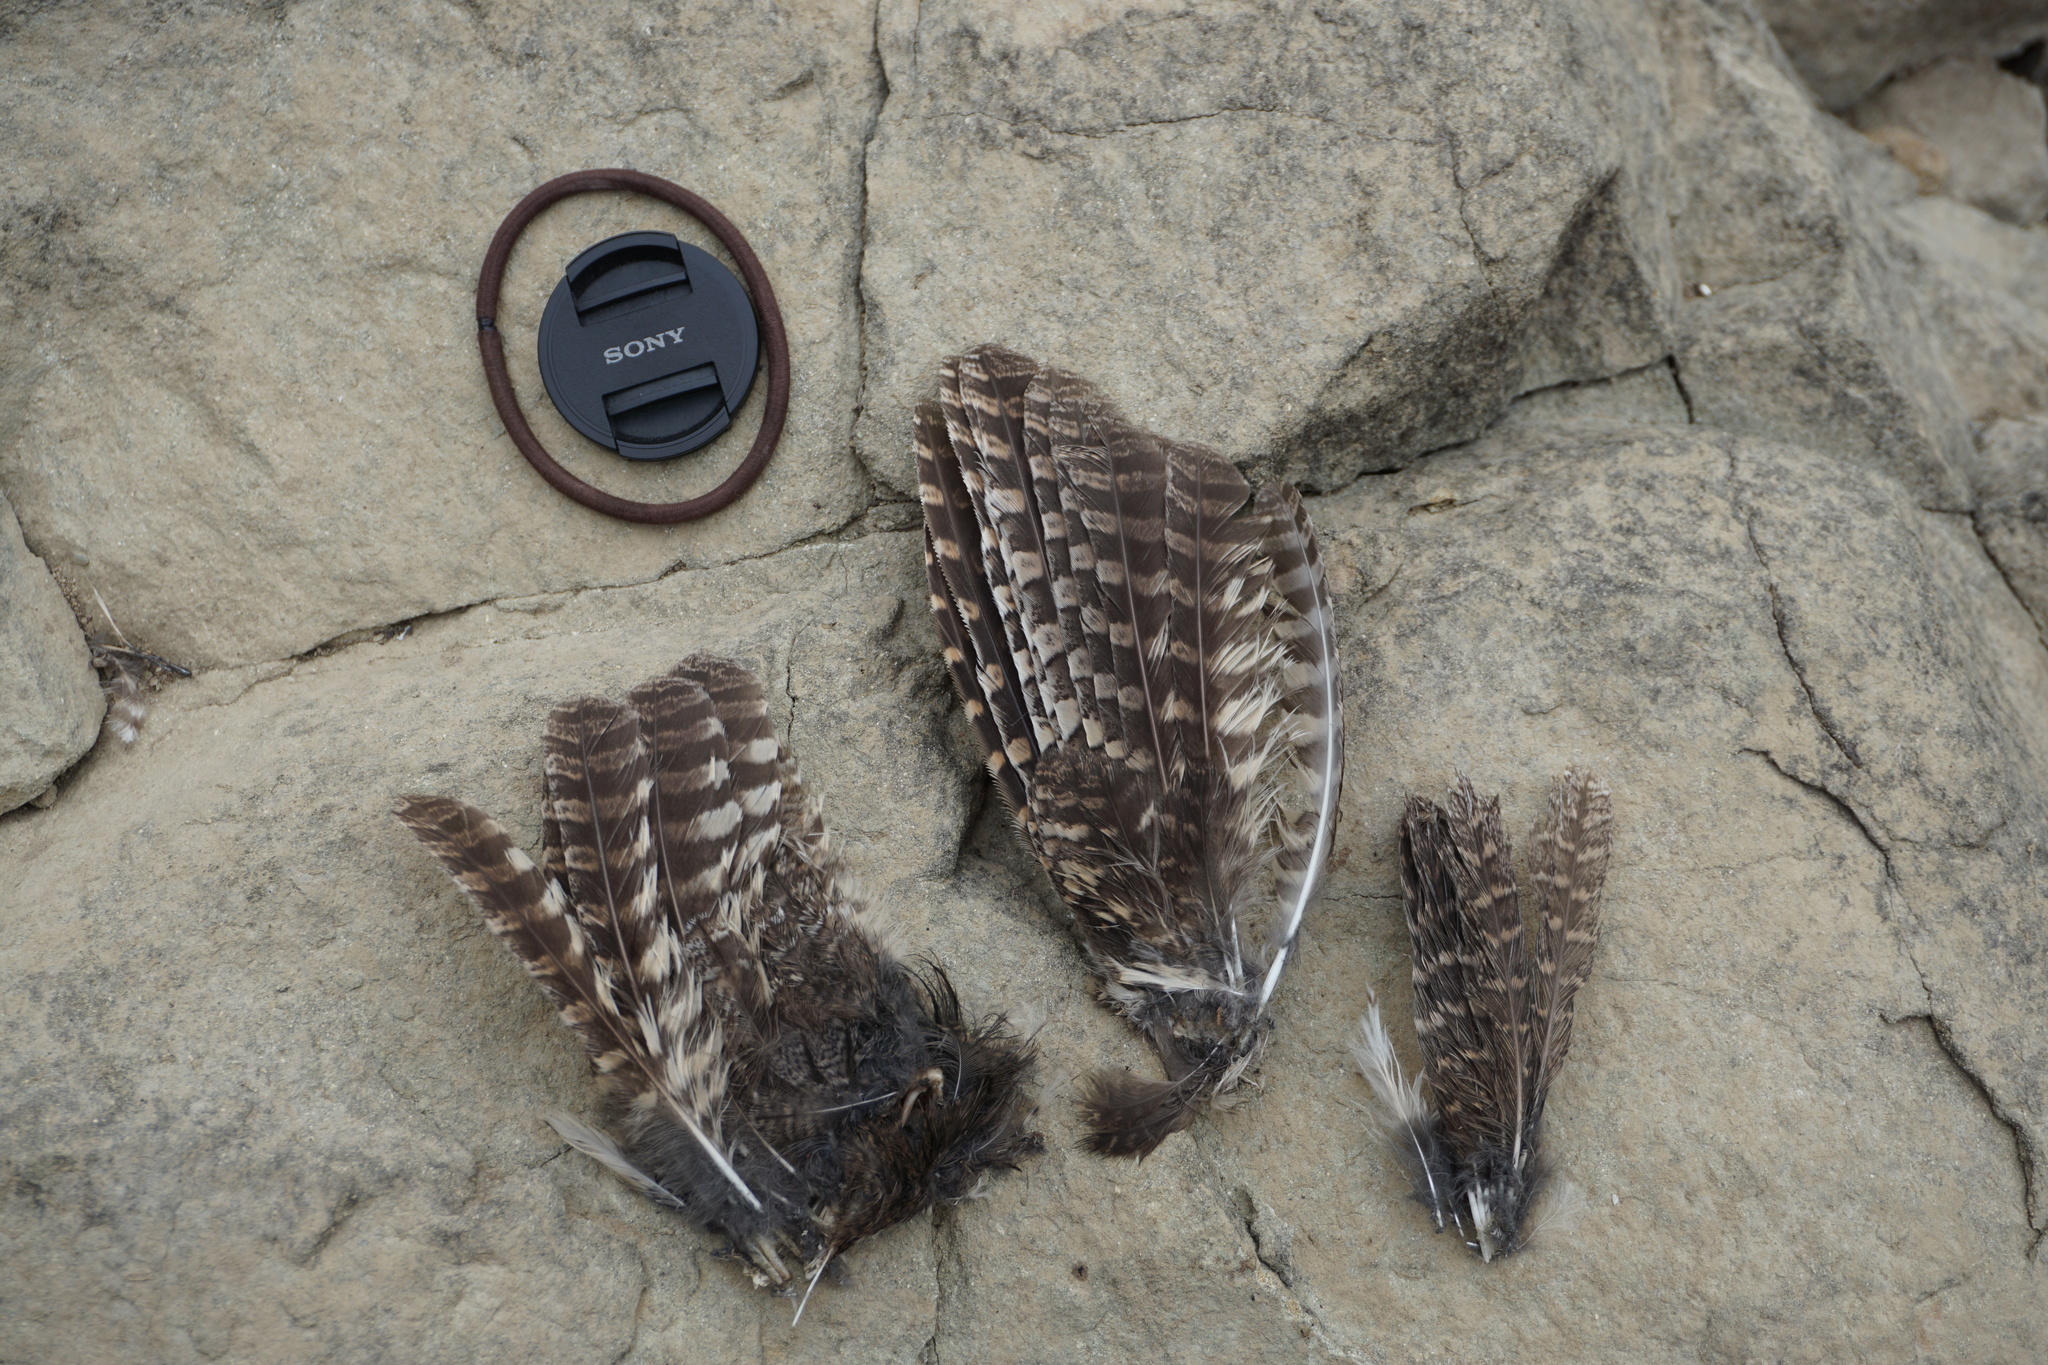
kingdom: Animalia
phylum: Chordata
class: Aves
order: Strigiformes
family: Strigidae
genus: Megascops
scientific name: Megascops kennicottii
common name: Western screech-owl
